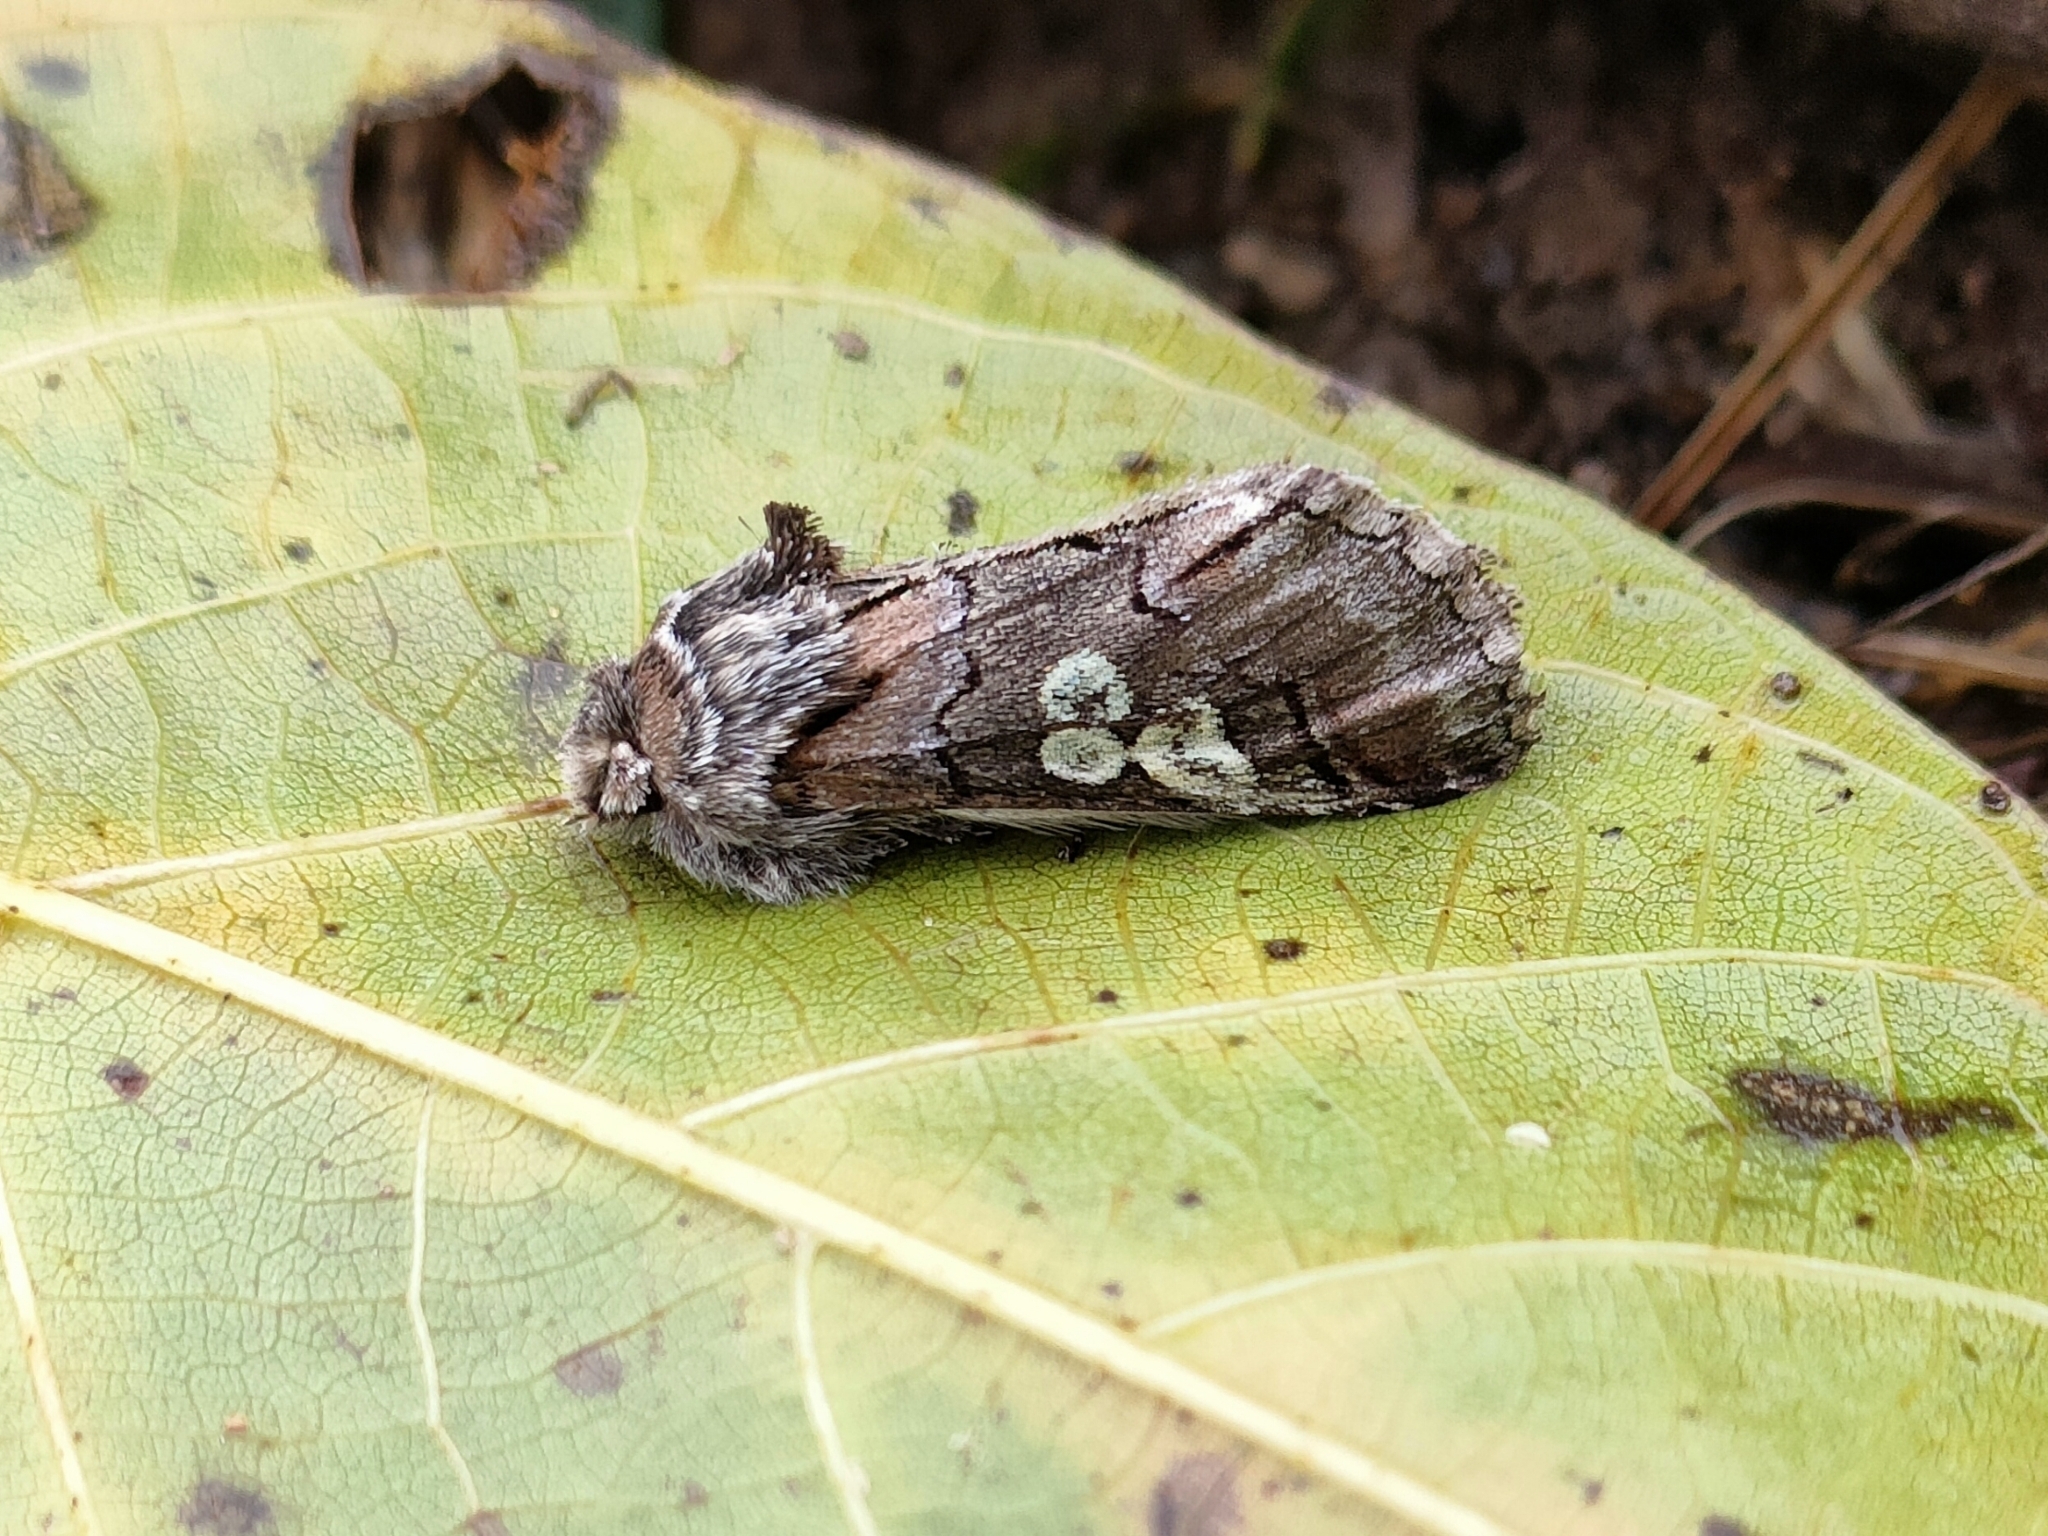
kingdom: Animalia
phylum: Arthropoda
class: Insecta
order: Lepidoptera
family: Noctuidae
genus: Diloba
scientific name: Diloba caeruleocephala
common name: Figure of eight
